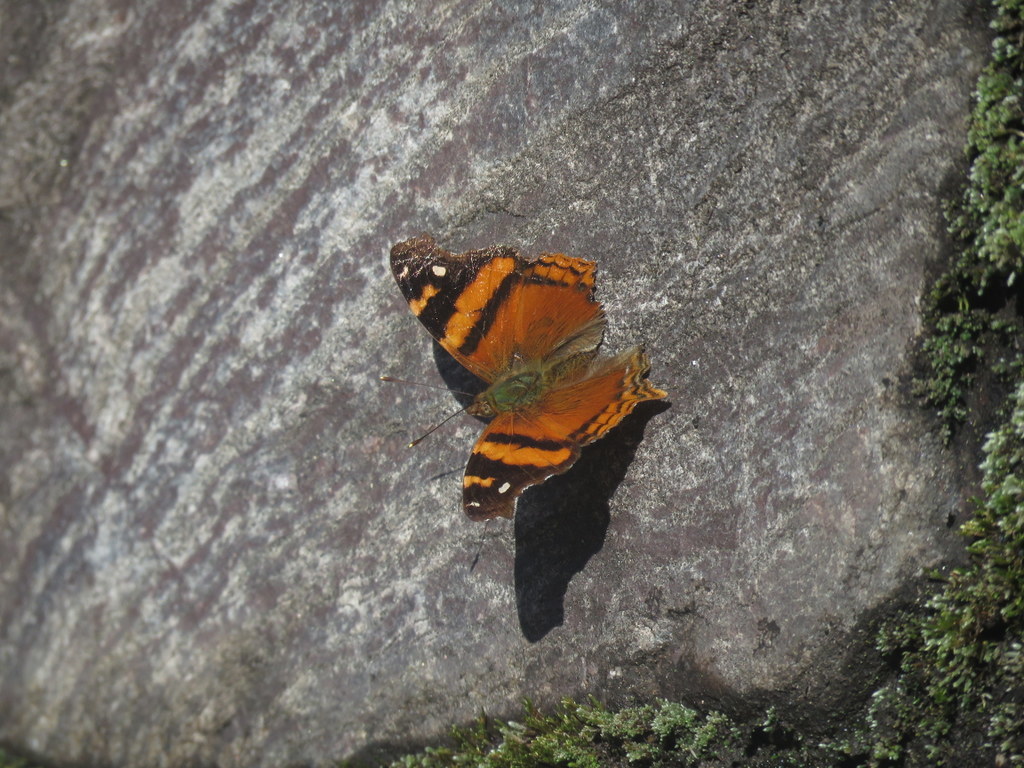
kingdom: Animalia
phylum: Arthropoda
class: Insecta
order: Lepidoptera
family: Nymphalidae
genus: Hypanartia
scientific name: Hypanartia bella
